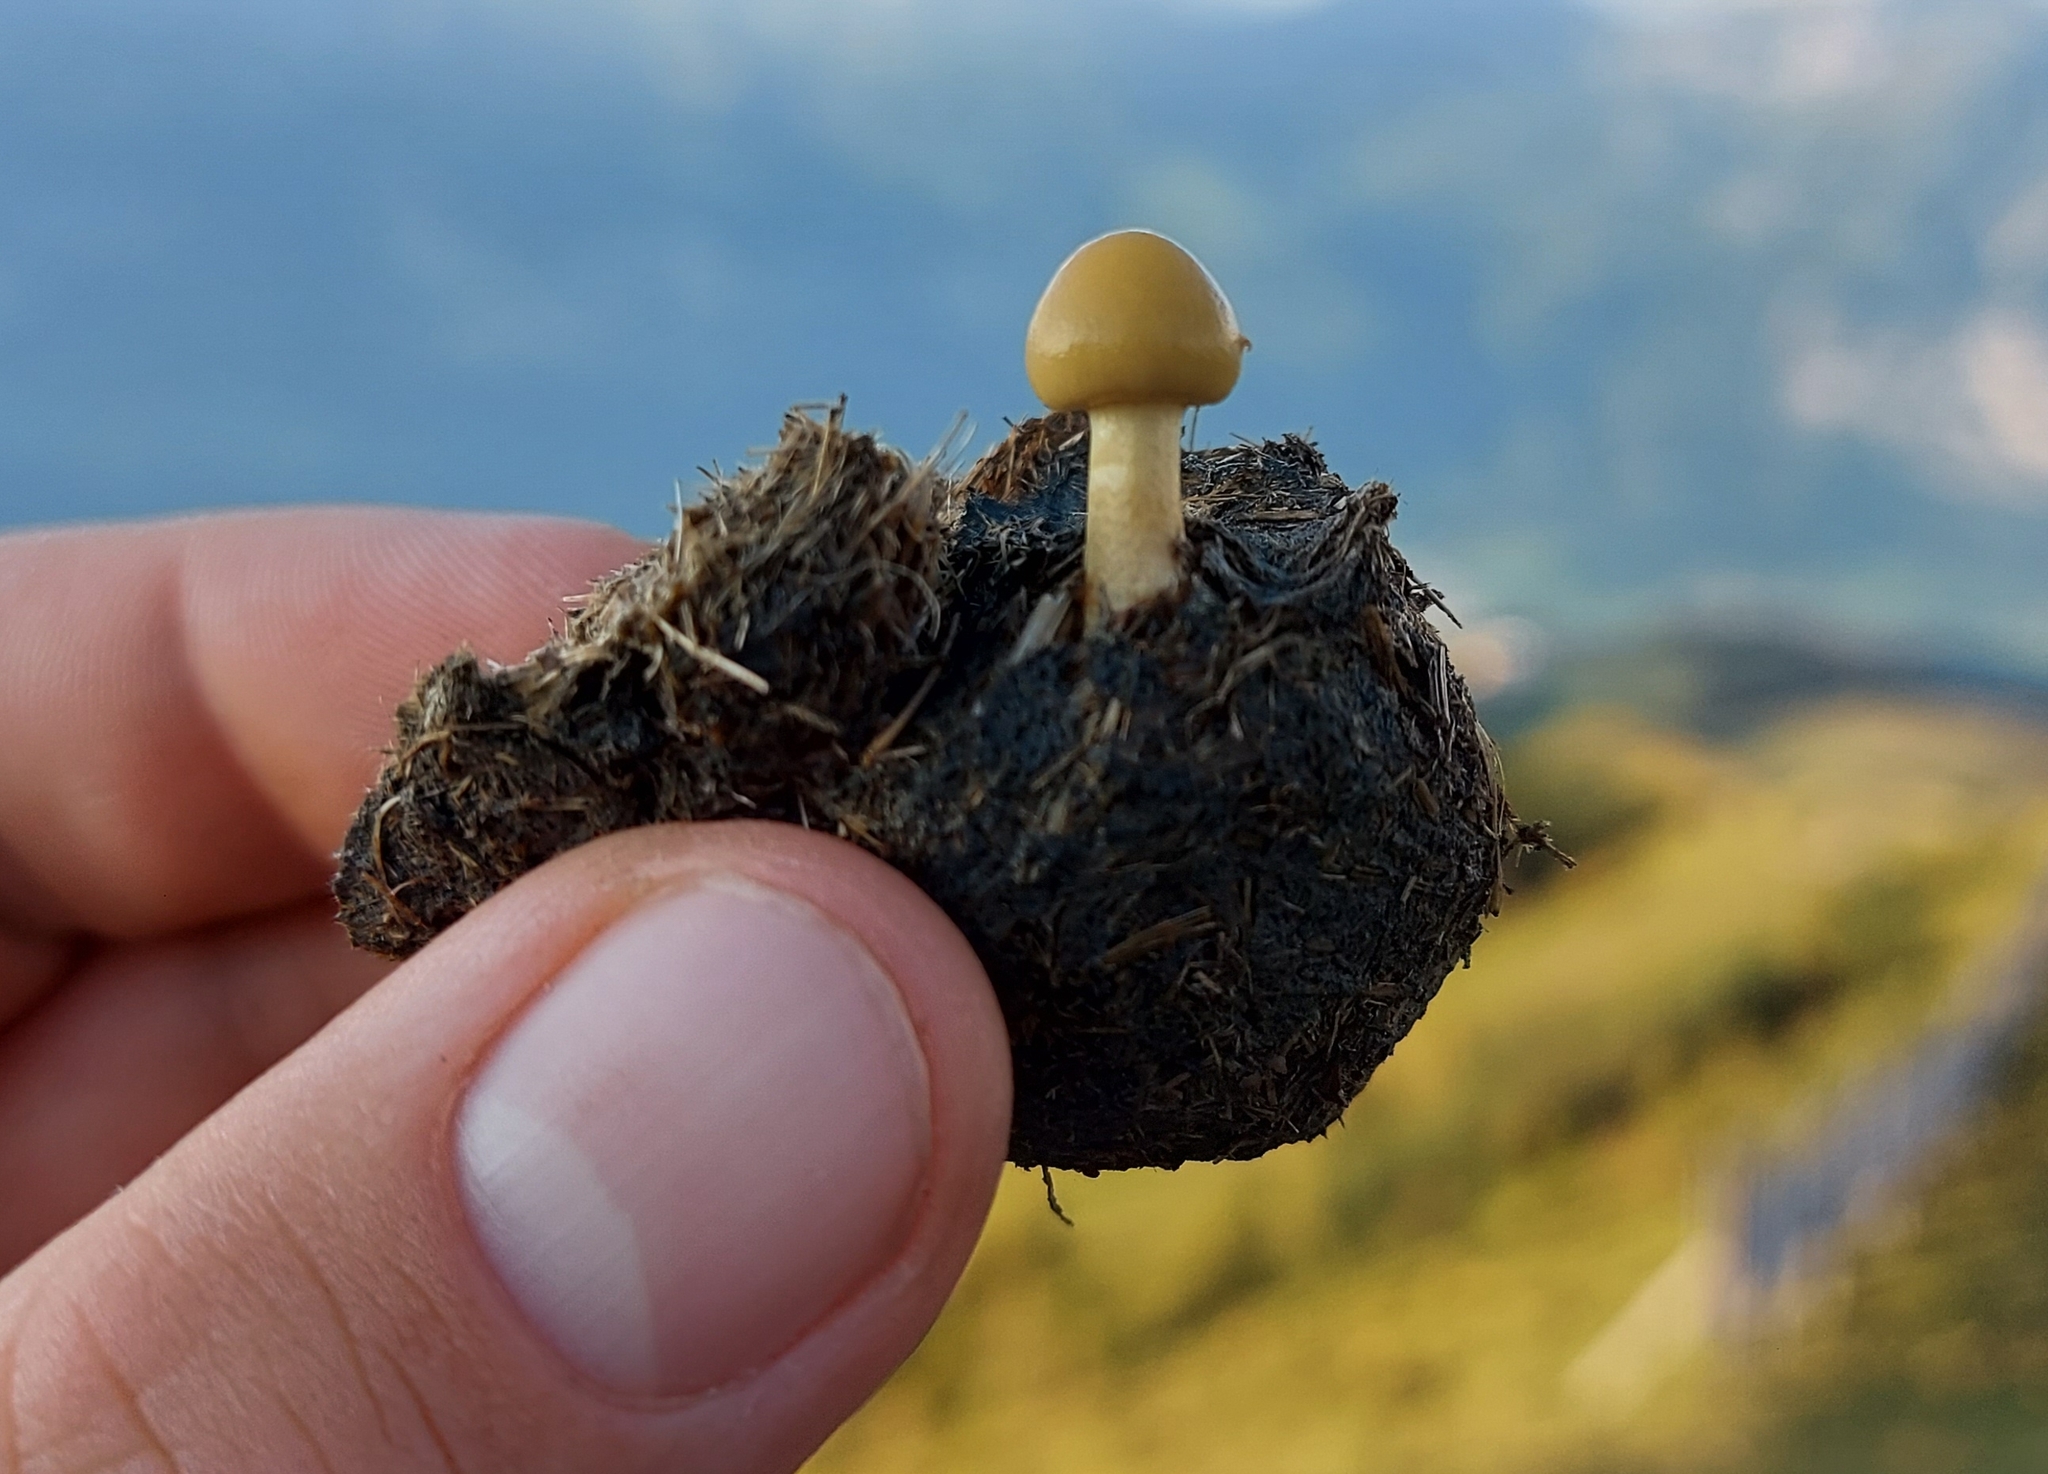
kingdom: Fungi
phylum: Basidiomycota
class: Agaricomycetes
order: Agaricales
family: Strophariaceae
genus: Protostropharia
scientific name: Protostropharia semiglobata
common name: Dung roundhead
